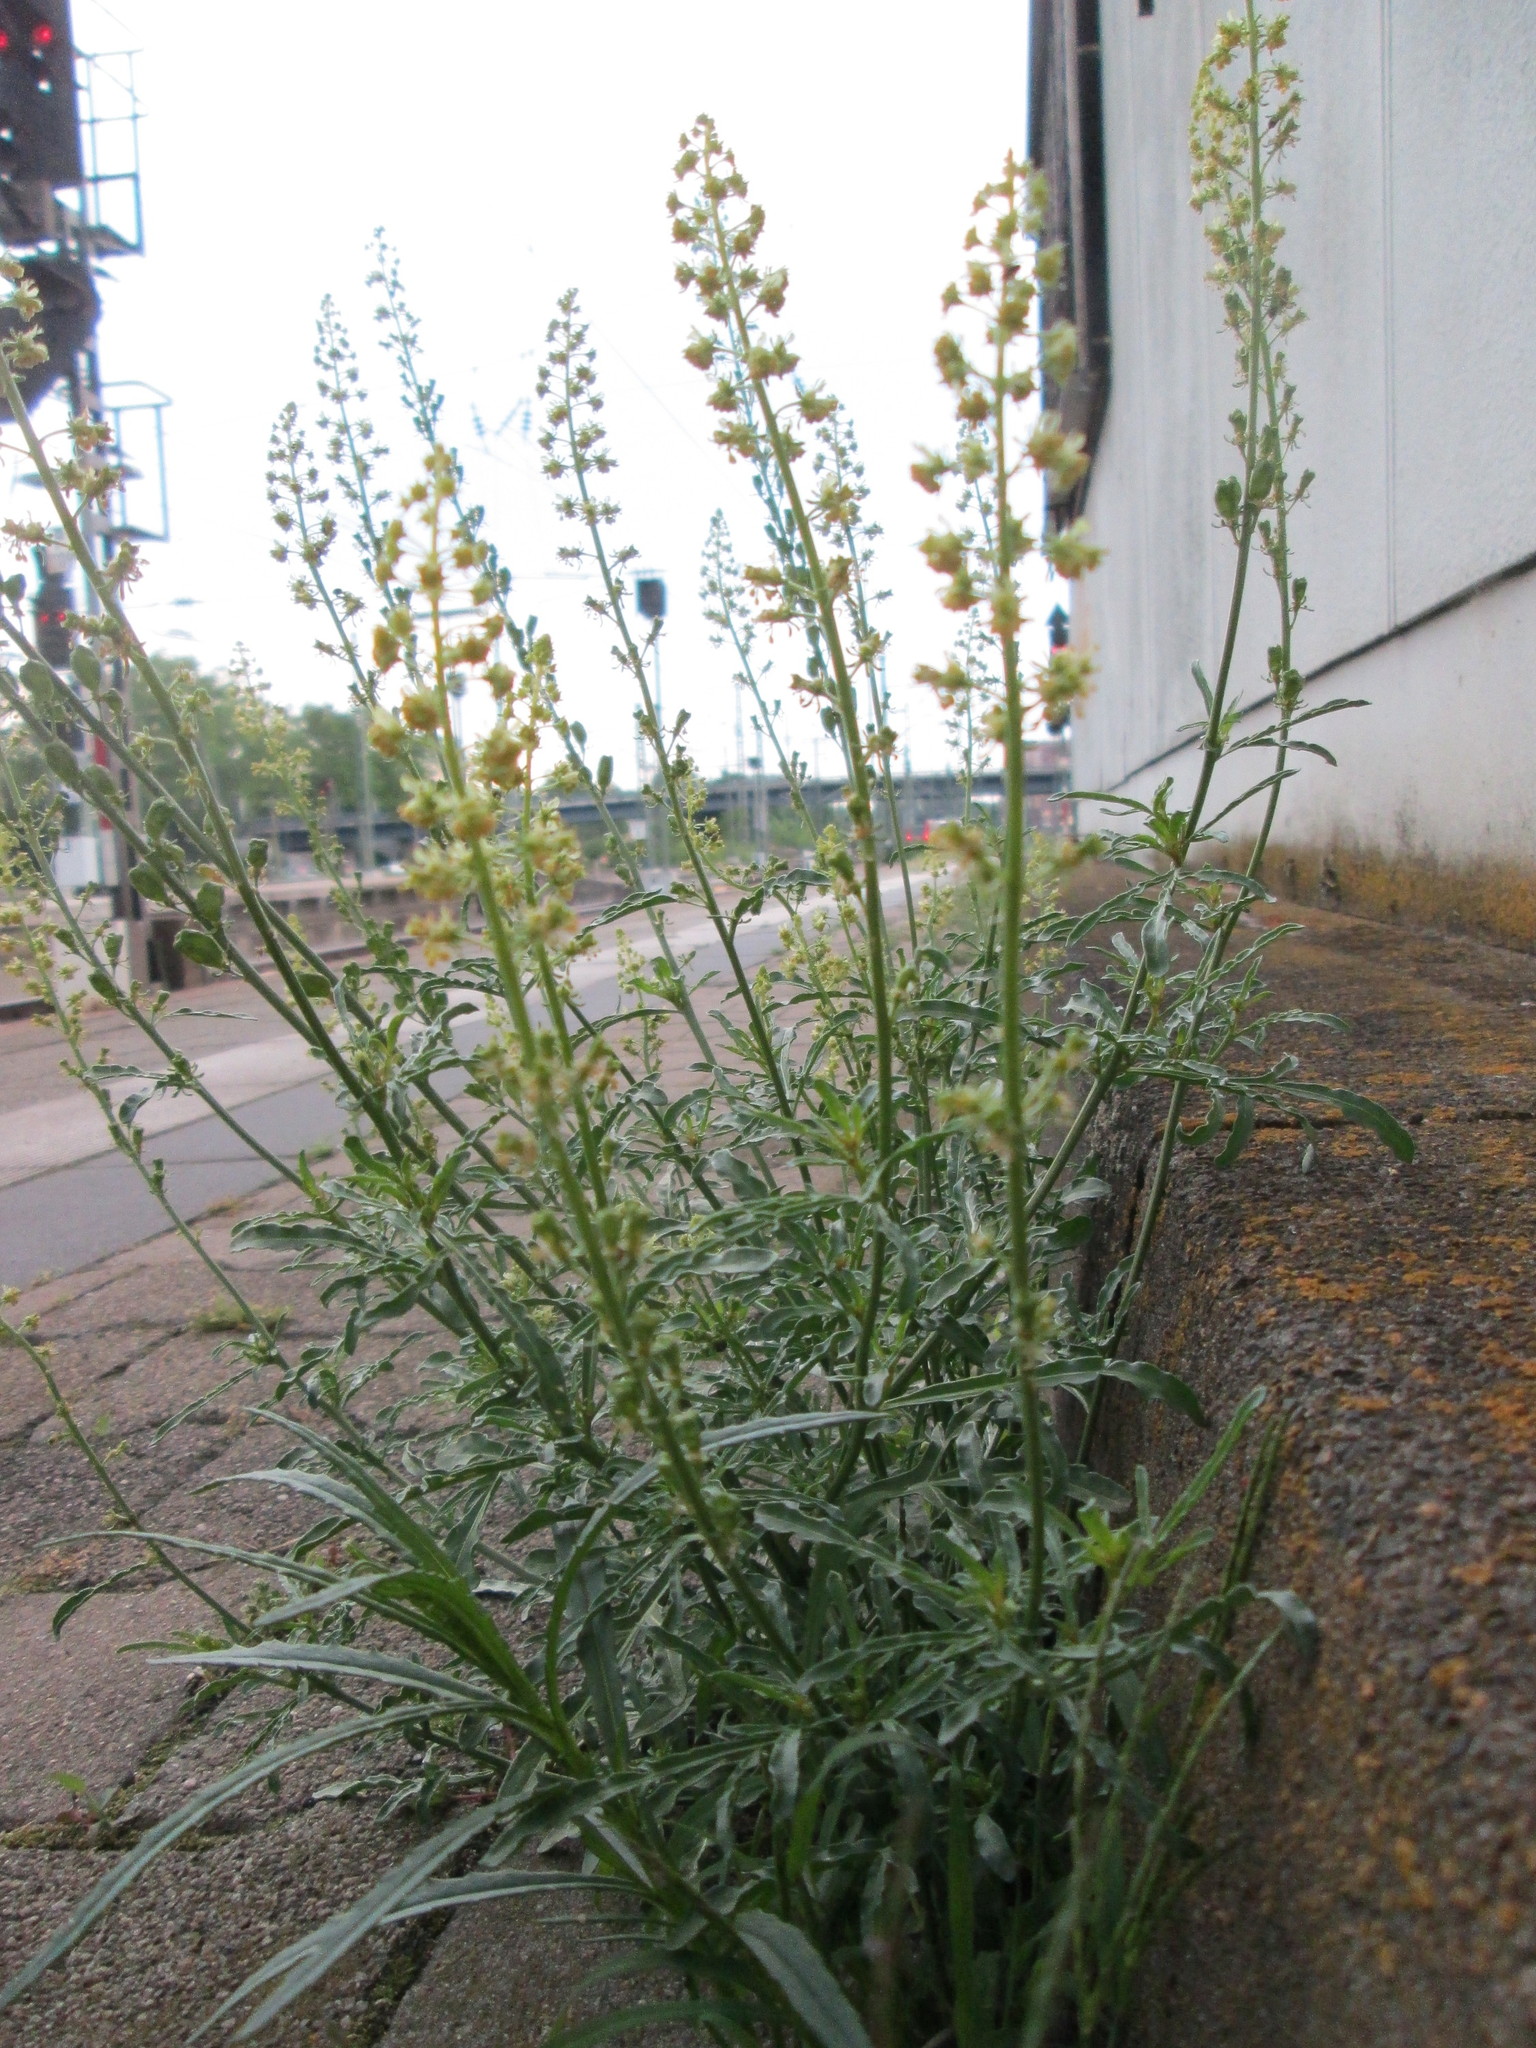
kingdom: Plantae
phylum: Tracheophyta
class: Magnoliopsida
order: Brassicales
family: Resedaceae
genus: Reseda
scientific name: Reseda lutea
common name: Wild mignonette
